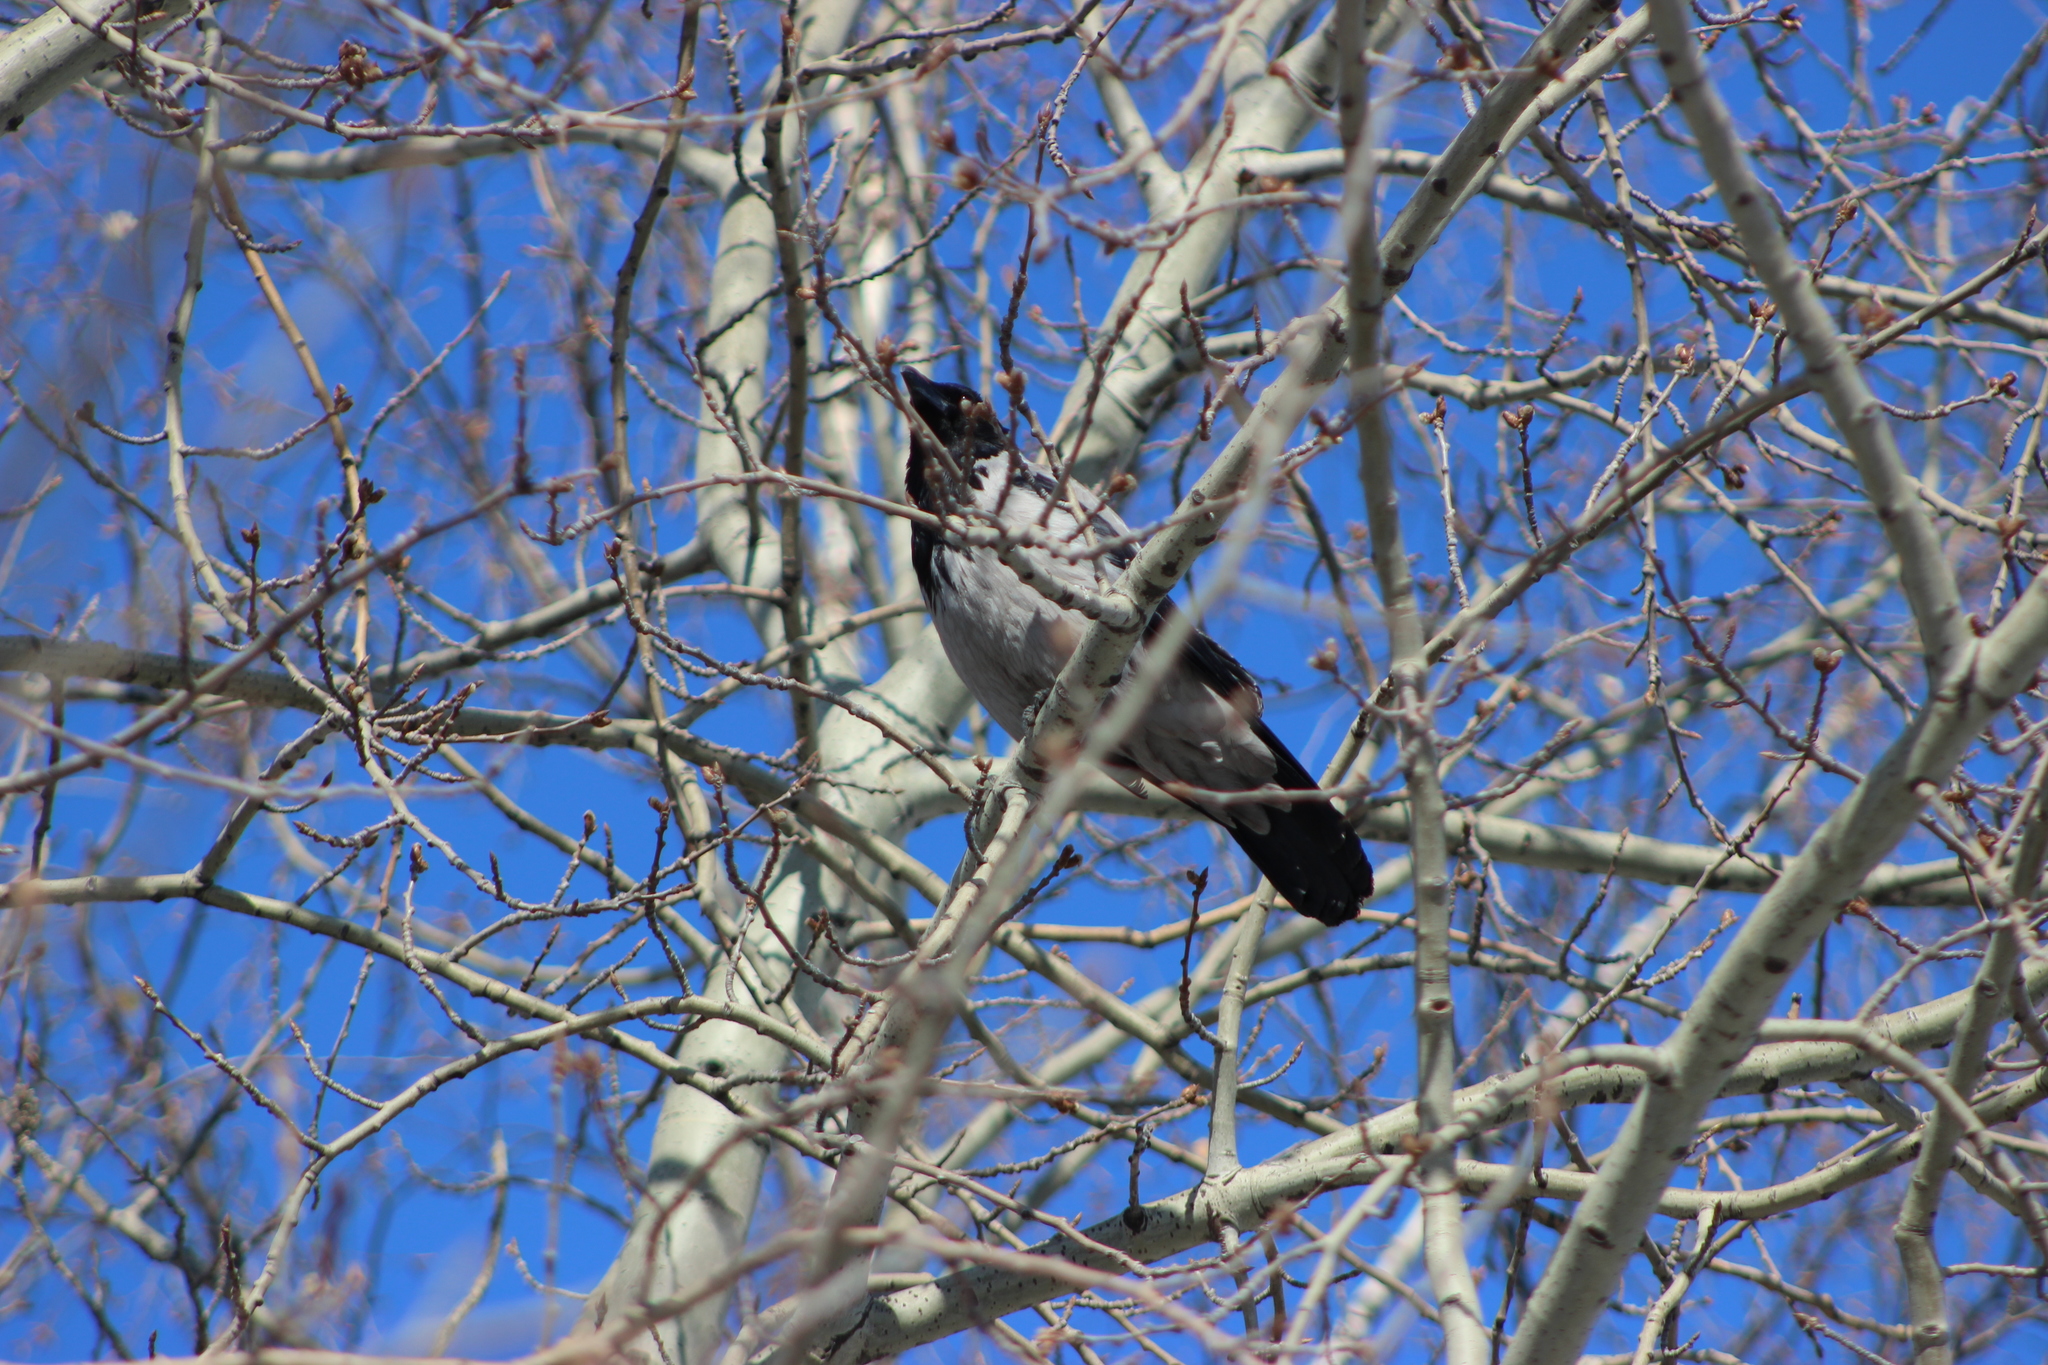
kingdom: Animalia
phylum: Chordata
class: Aves
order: Passeriformes
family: Corvidae
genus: Corvus
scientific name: Corvus cornix
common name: Hooded crow
